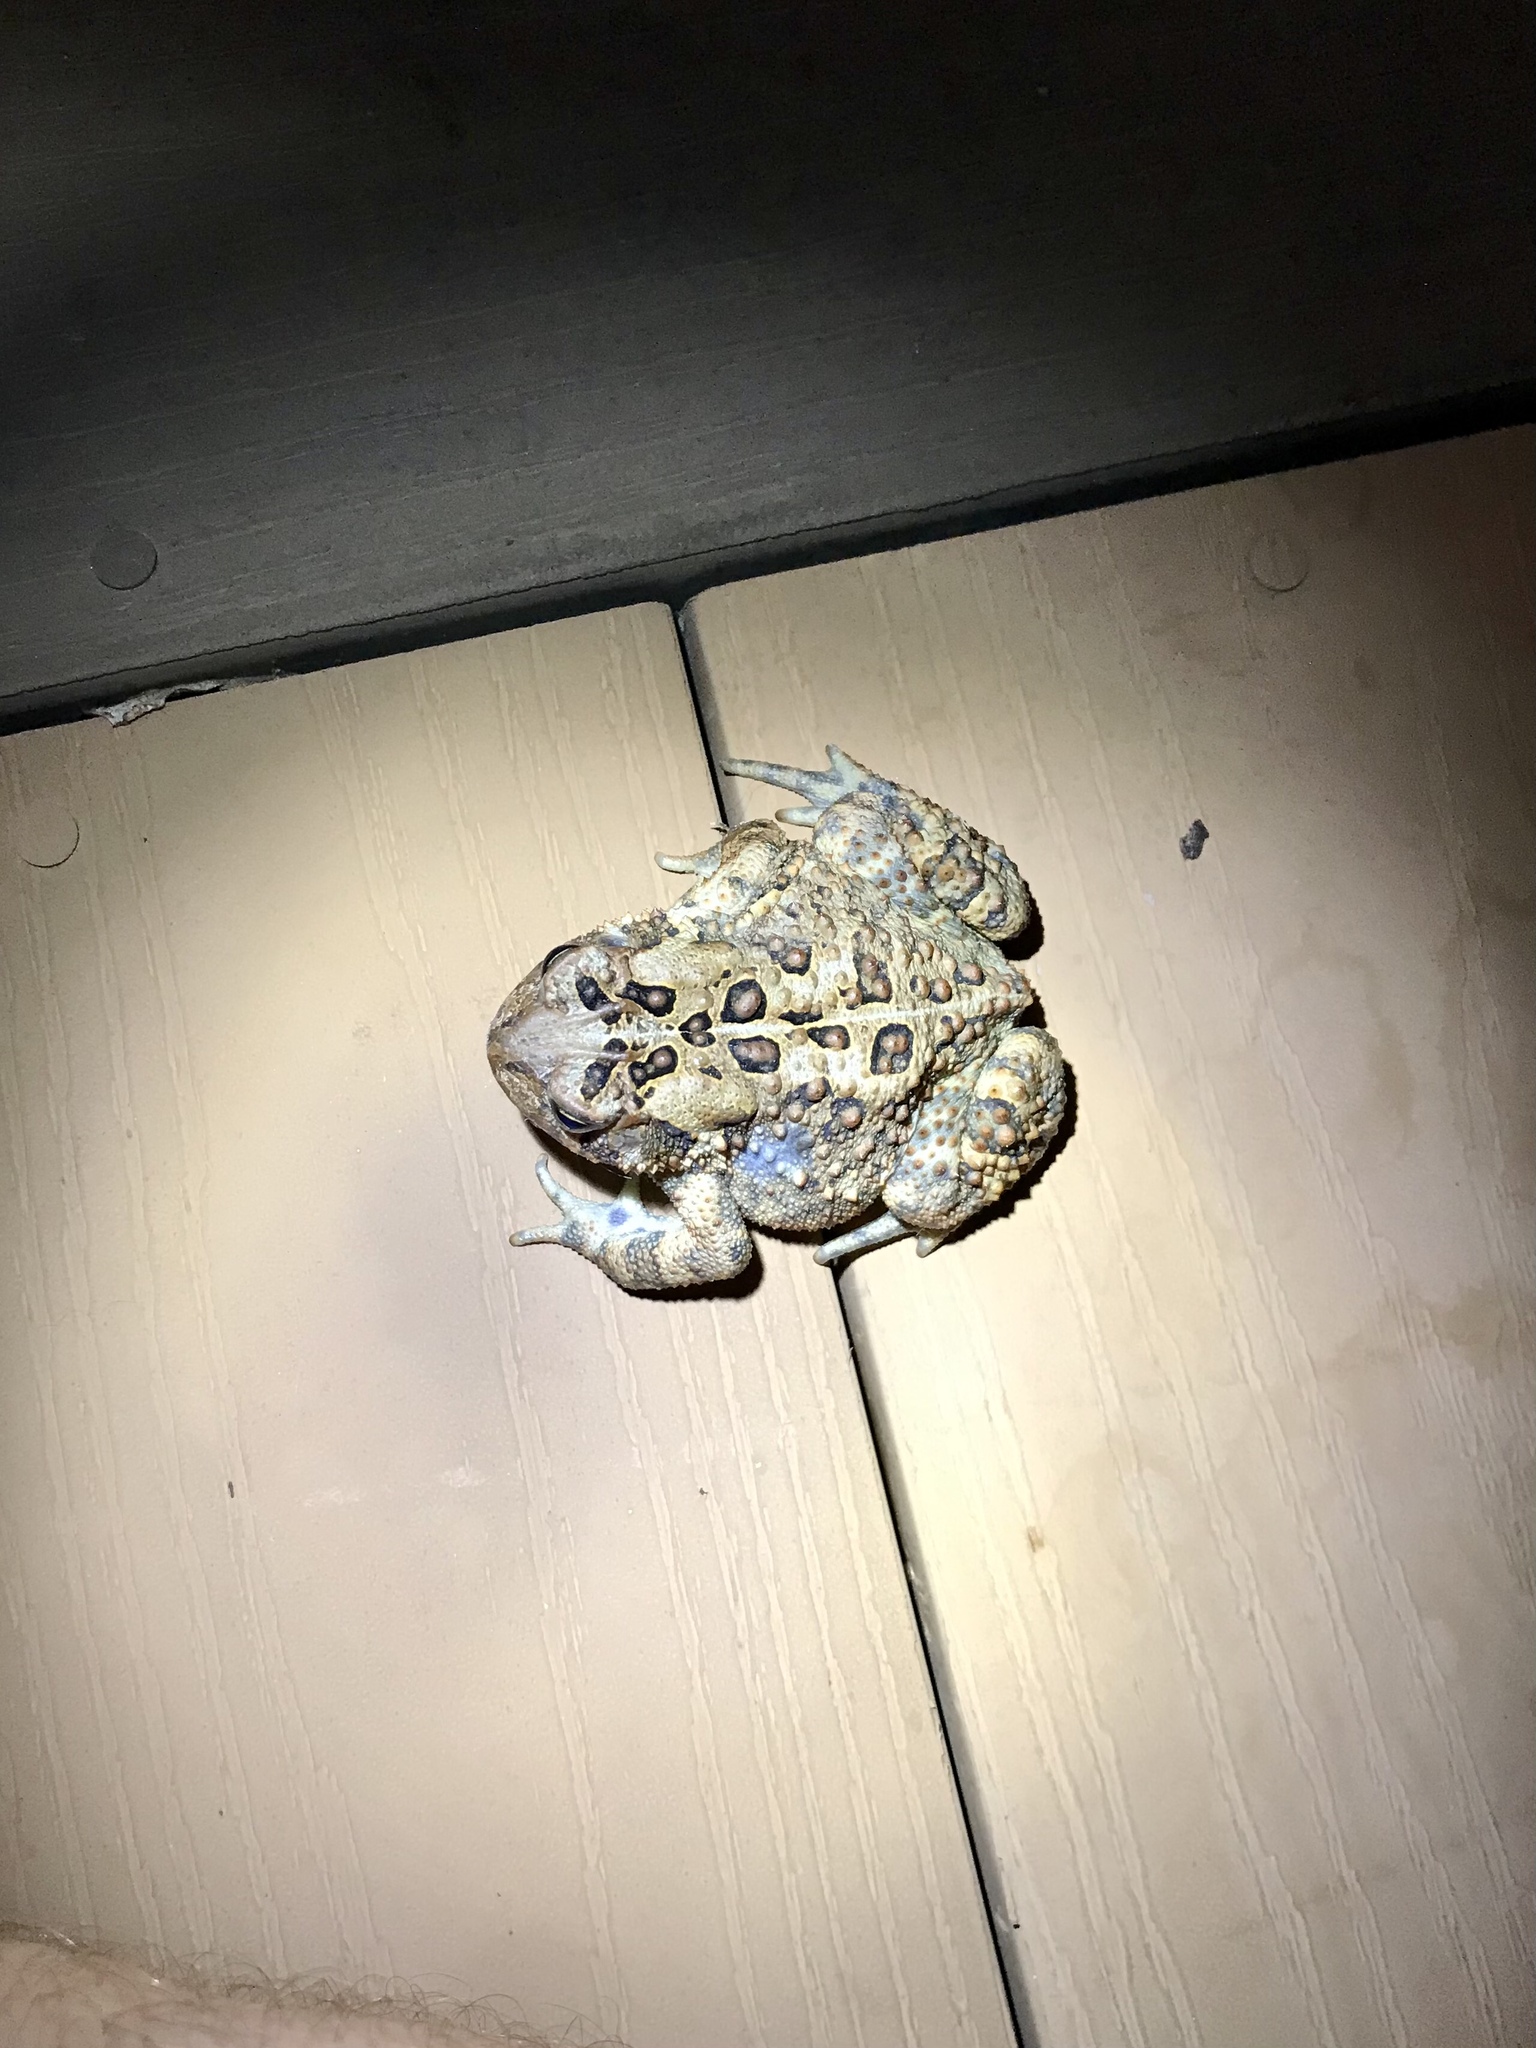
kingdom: Animalia
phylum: Chordata
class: Amphibia
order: Anura
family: Bufonidae
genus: Anaxyrus
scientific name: Anaxyrus americanus
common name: American toad
